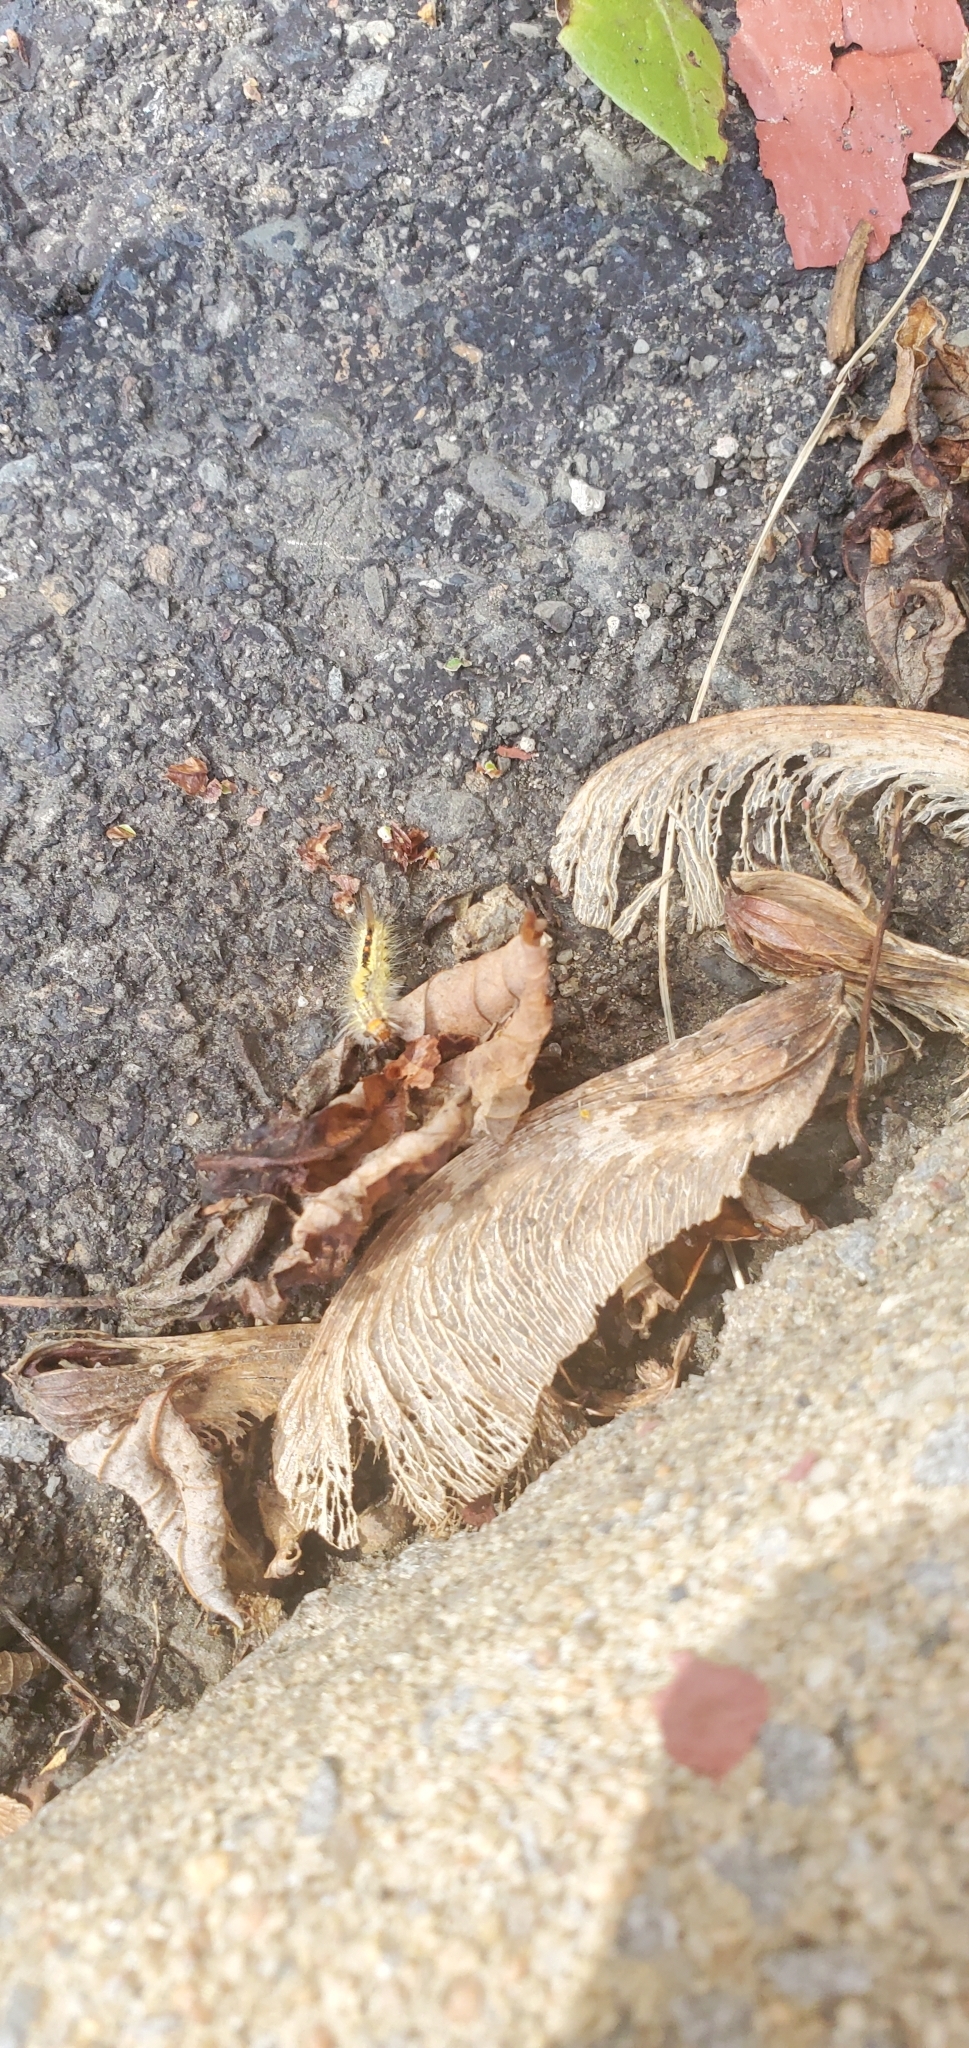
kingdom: Animalia
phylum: Arthropoda
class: Insecta
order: Lepidoptera
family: Erebidae
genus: Orgyia
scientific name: Orgyia leucostigma
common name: White-marked tussock moth
